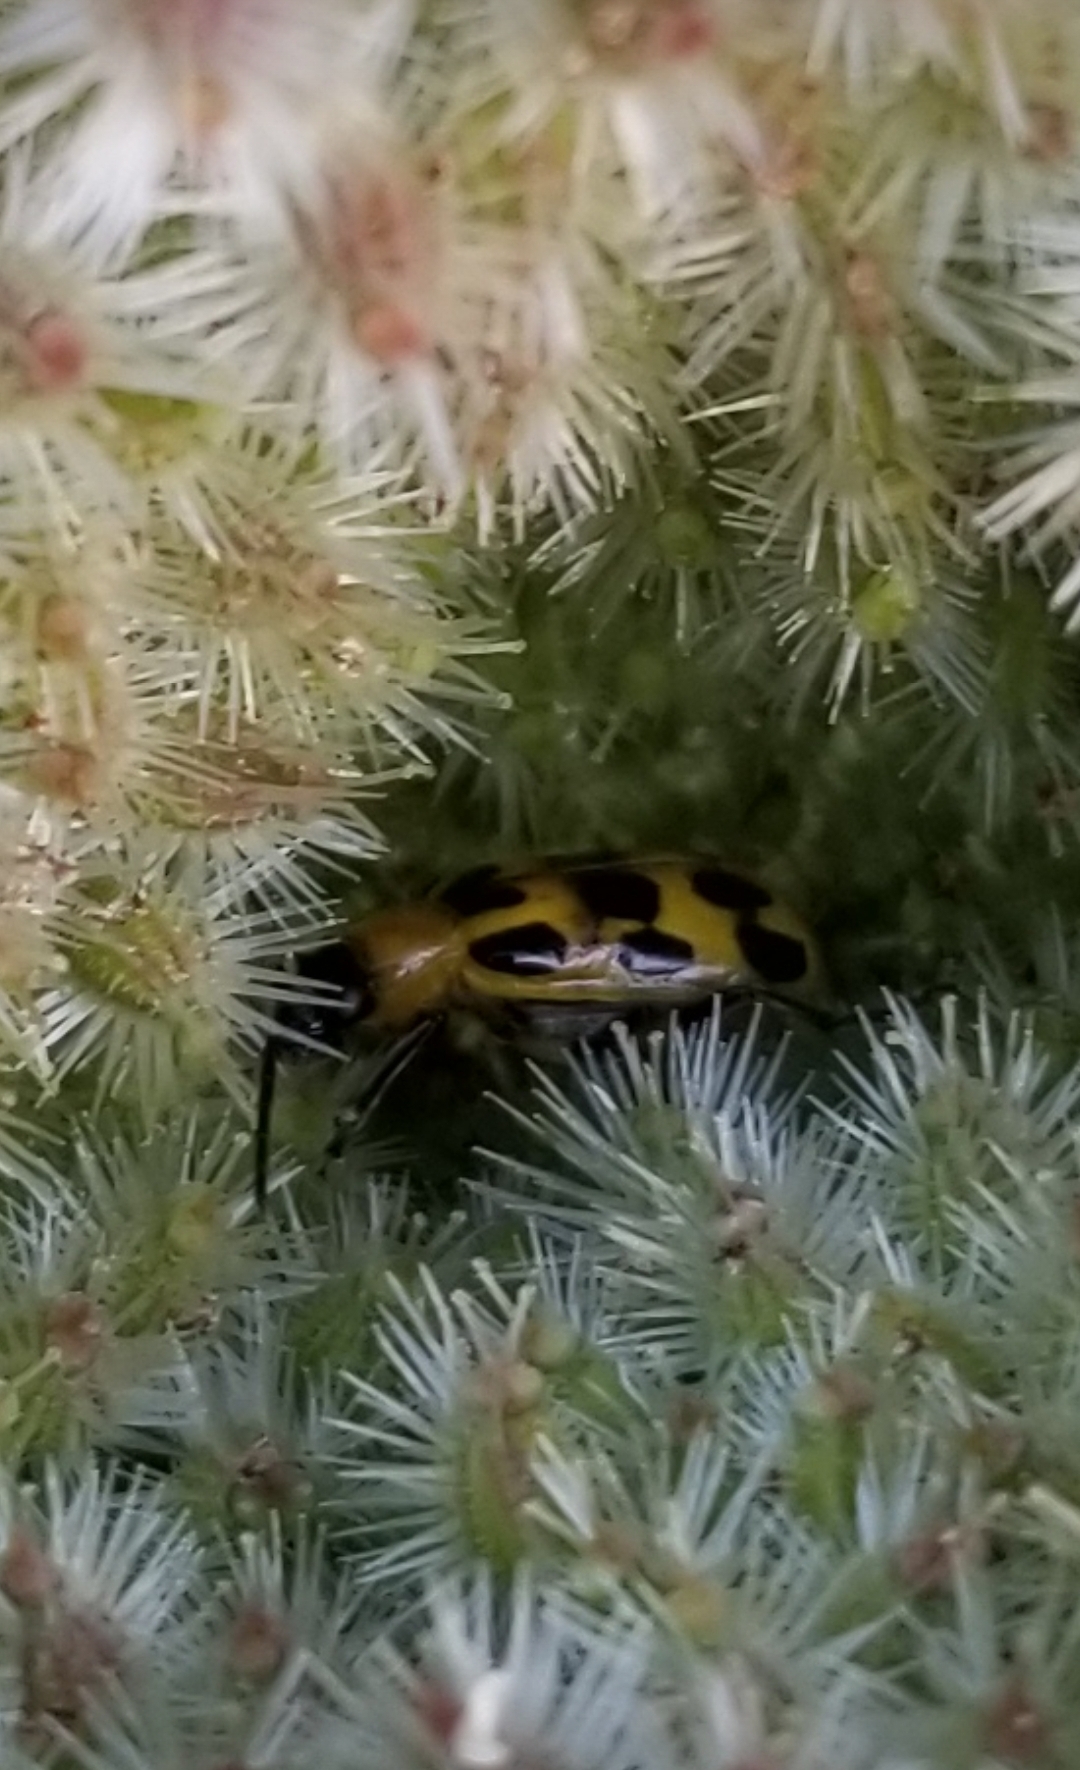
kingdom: Animalia
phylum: Arthropoda
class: Insecta
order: Coleoptera
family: Chrysomelidae
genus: Diabrotica
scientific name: Diabrotica undecimpunctata
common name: Spotted cucumber beetle
